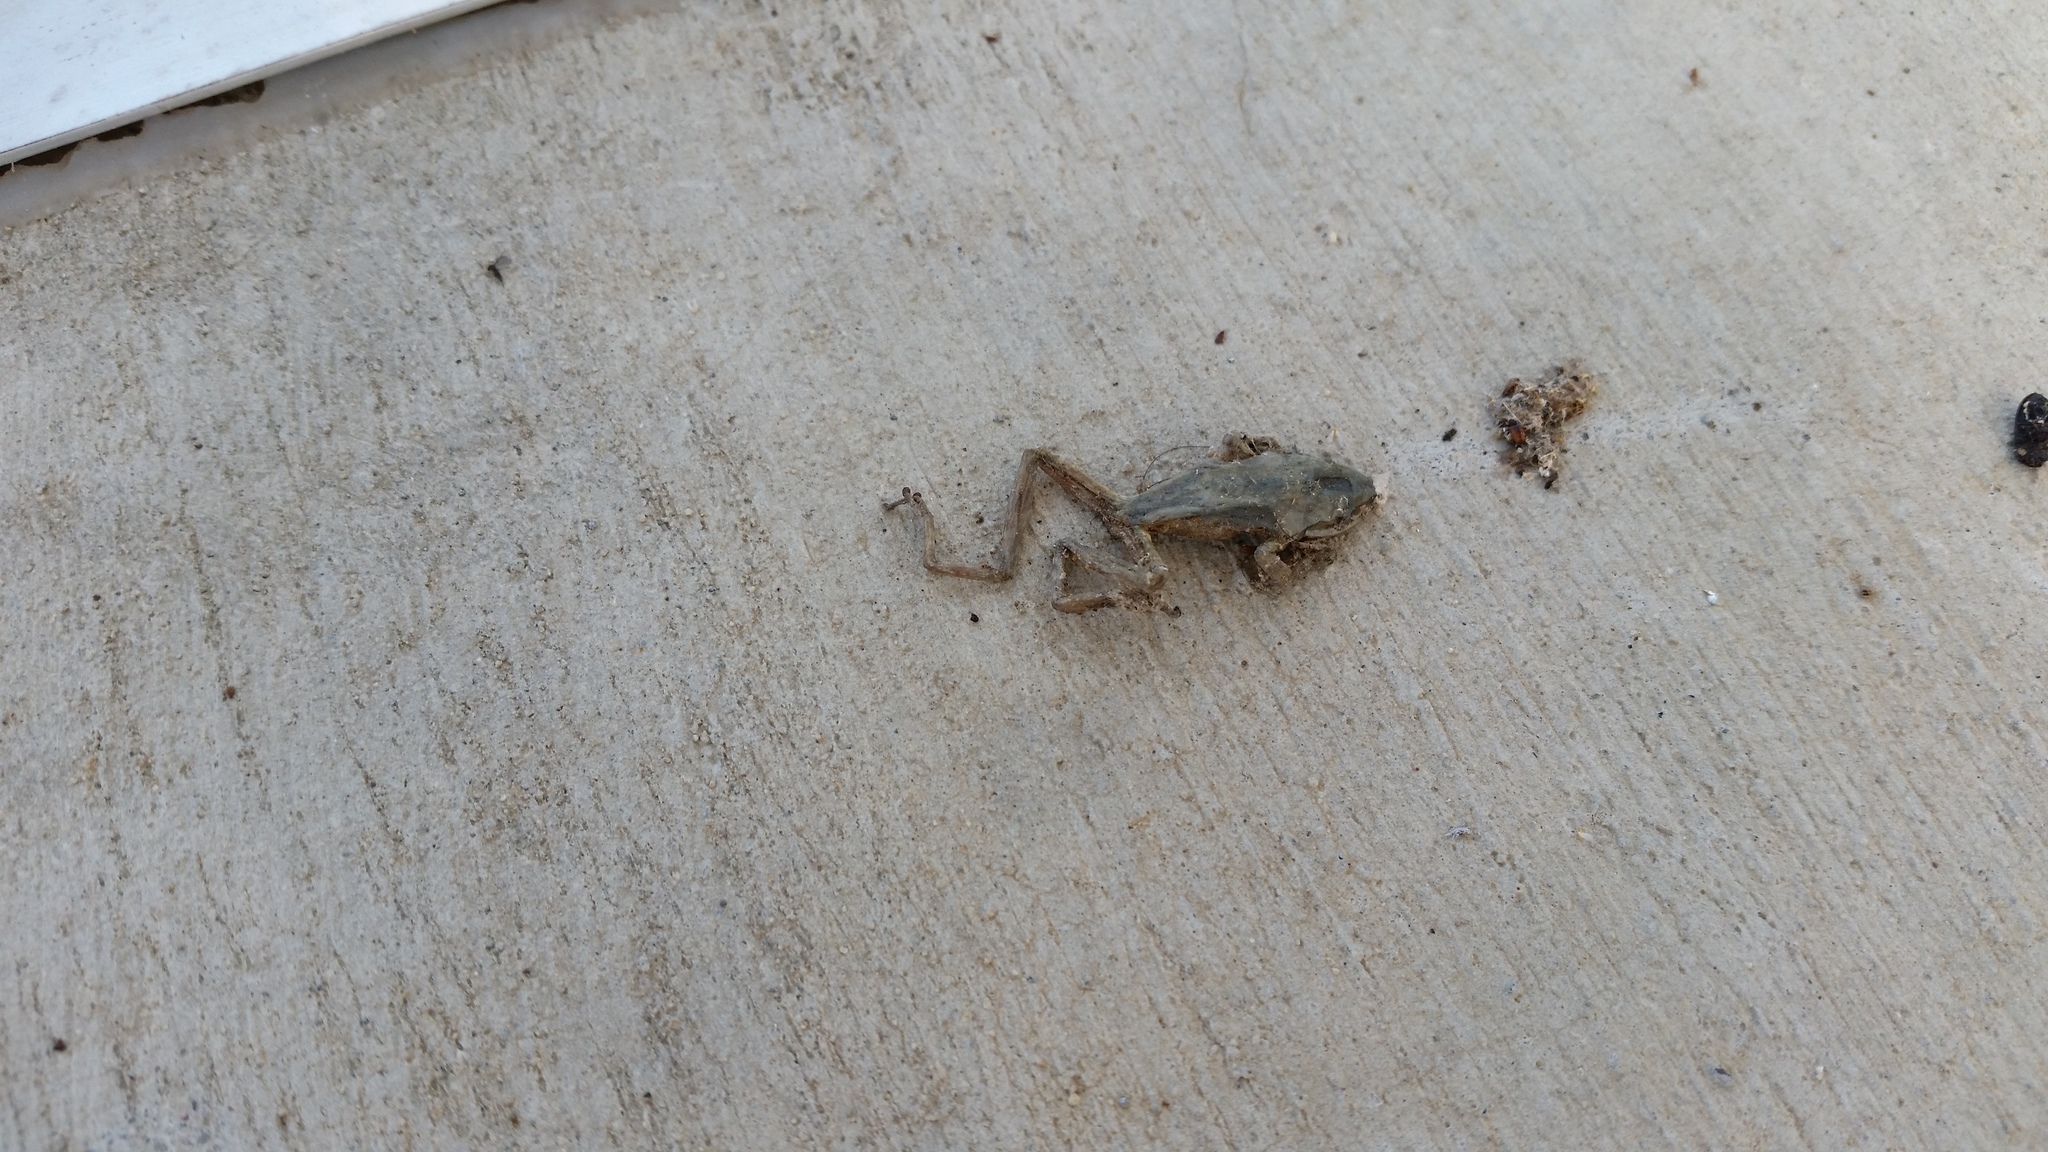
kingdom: Animalia
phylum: Chordata
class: Amphibia
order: Anura
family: Hylidae
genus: Pseudacris
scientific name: Pseudacris regilla
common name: Pacific chorus frog
